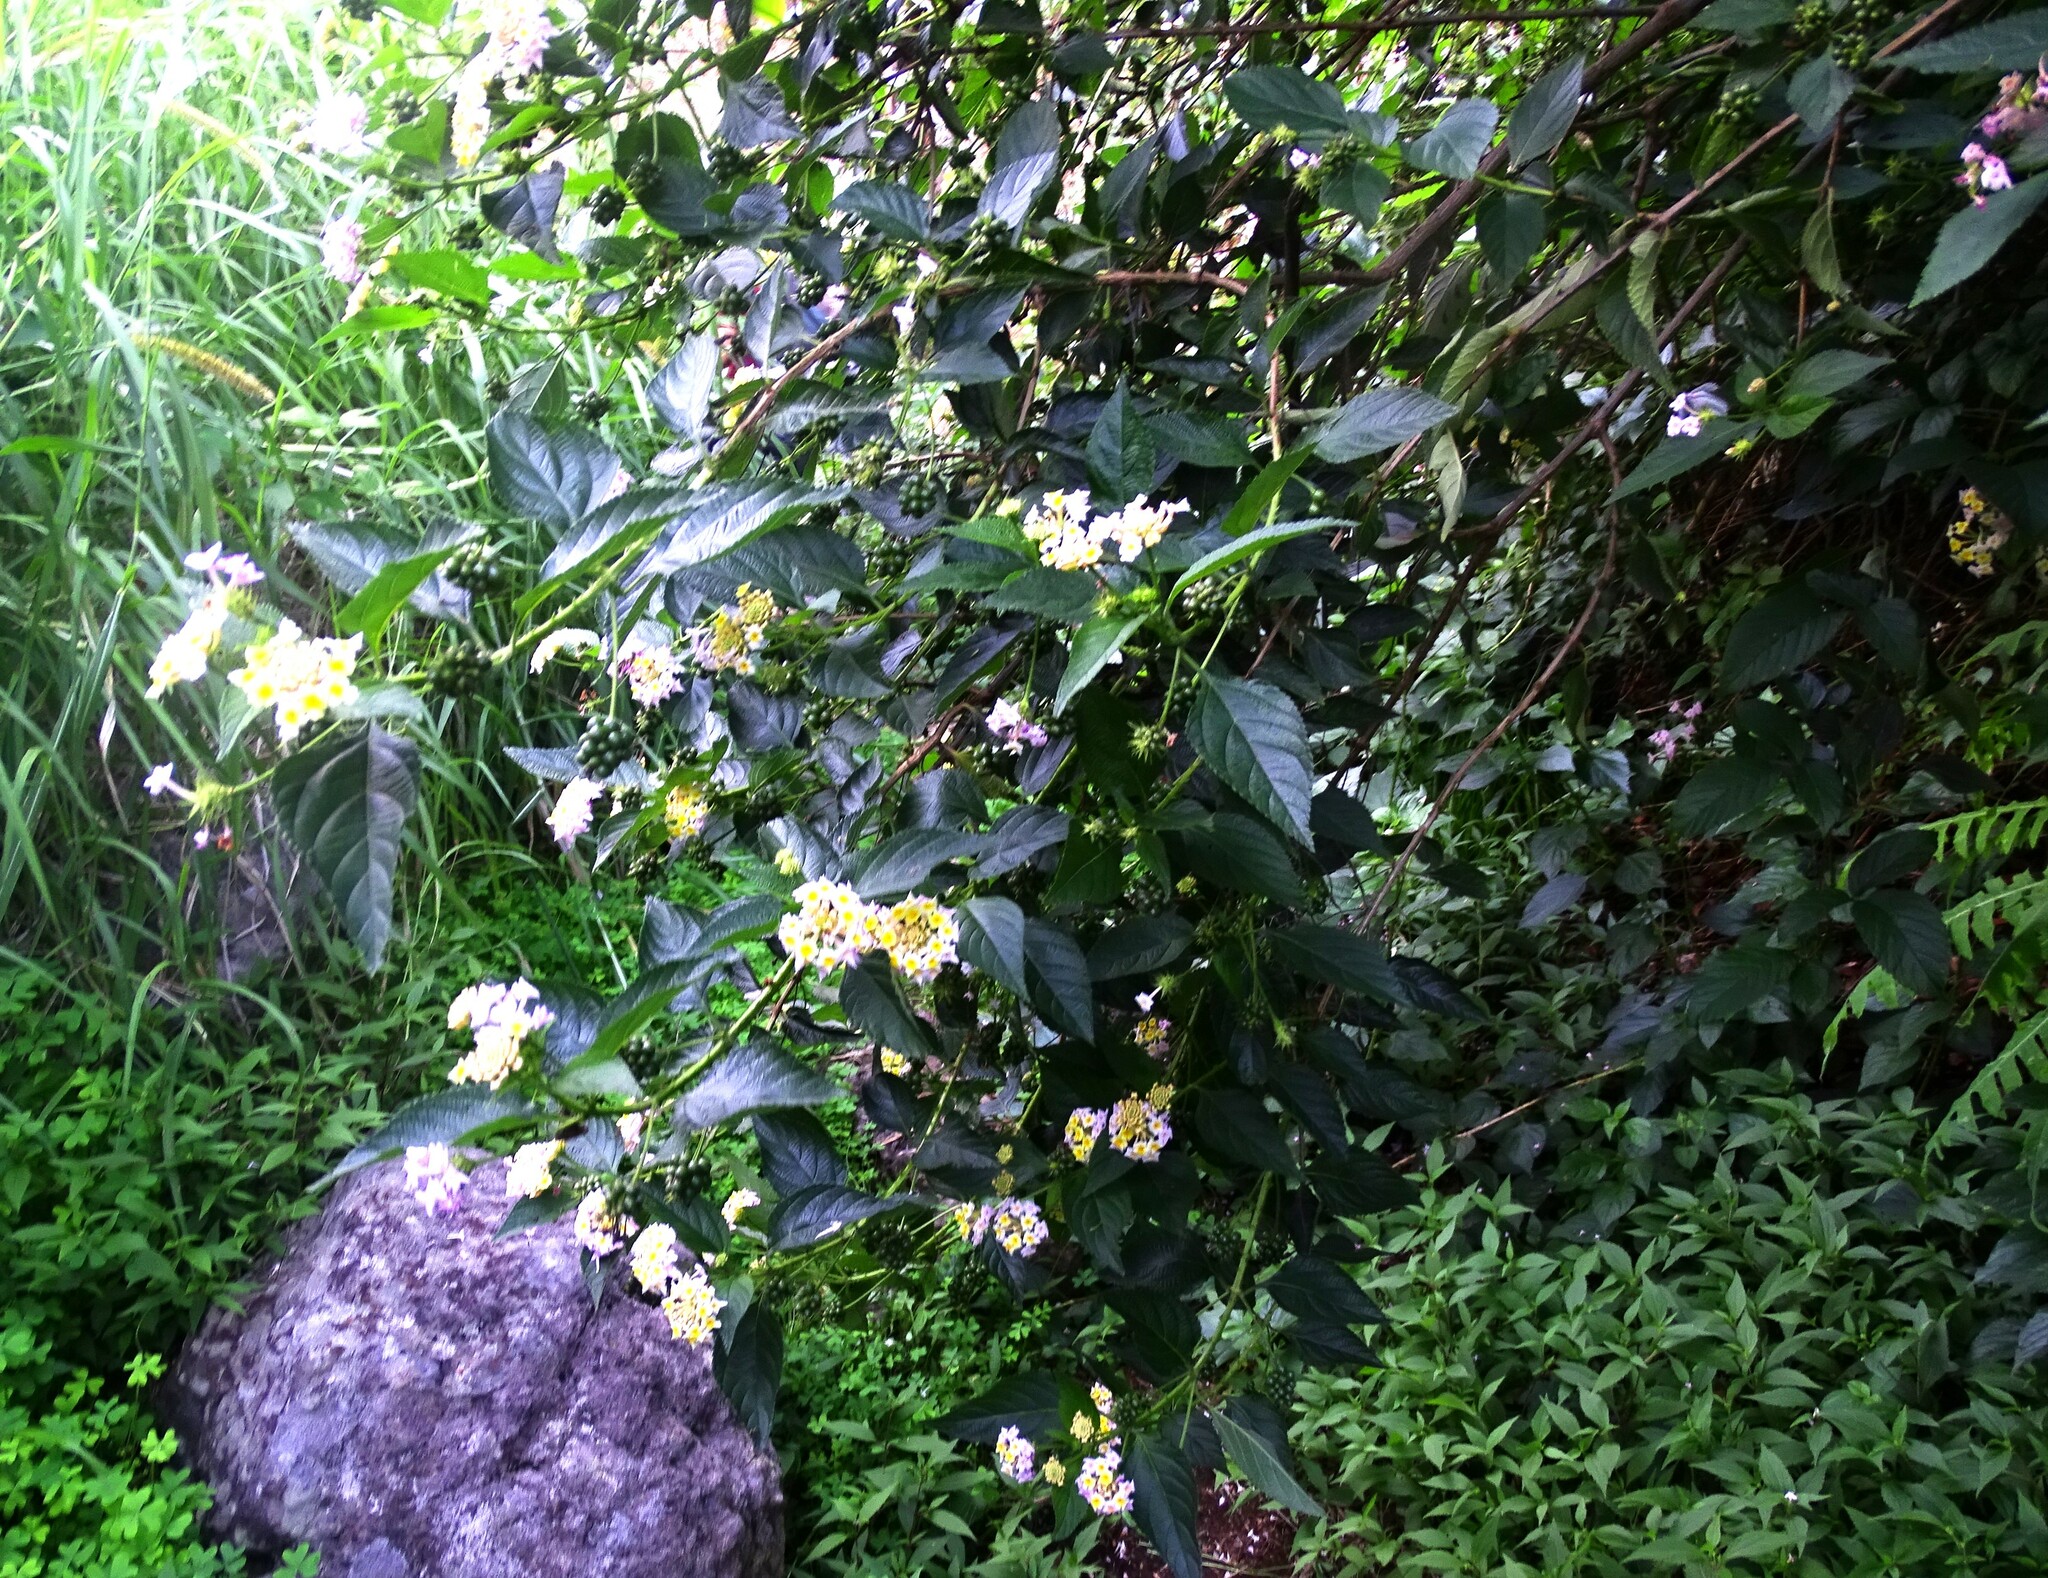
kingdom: Plantae
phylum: Tracheophyta
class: Magnoliopsida
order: Lamiales
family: Verbenaceae
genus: Lantana
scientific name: Lantana camara
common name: Lantana
